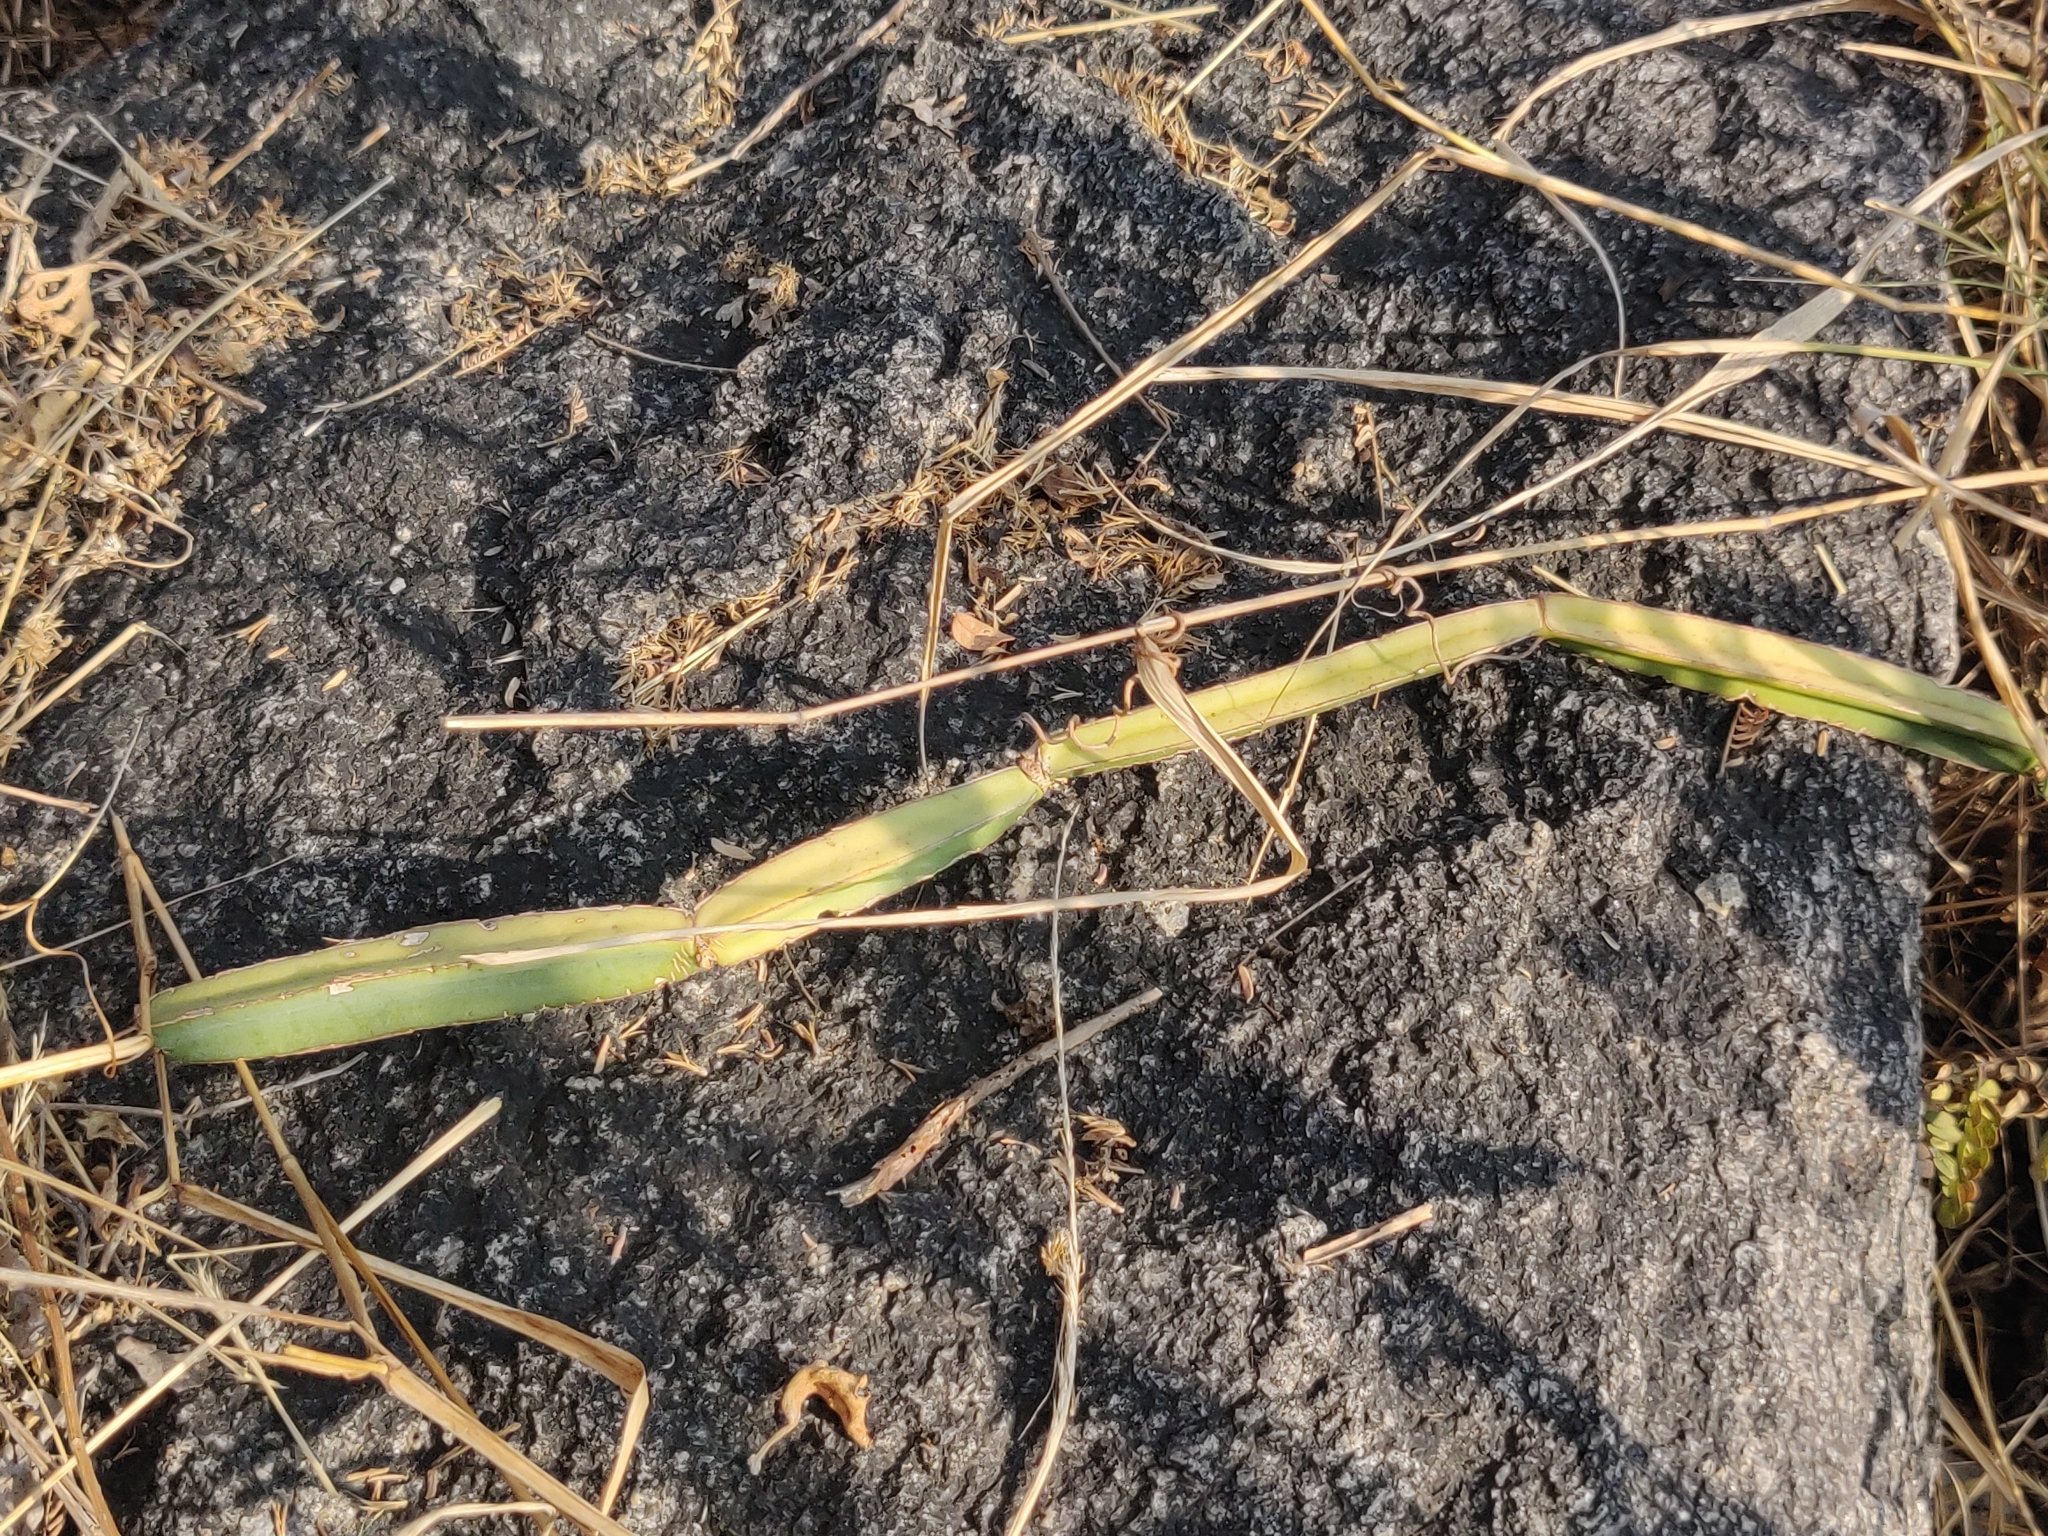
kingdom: Plantae
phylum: Tracheophyta
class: Magnoliopsida
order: Vitales
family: Vitaceae
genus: Cissus
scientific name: Cissus quadrangularis
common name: Veldt-grape
